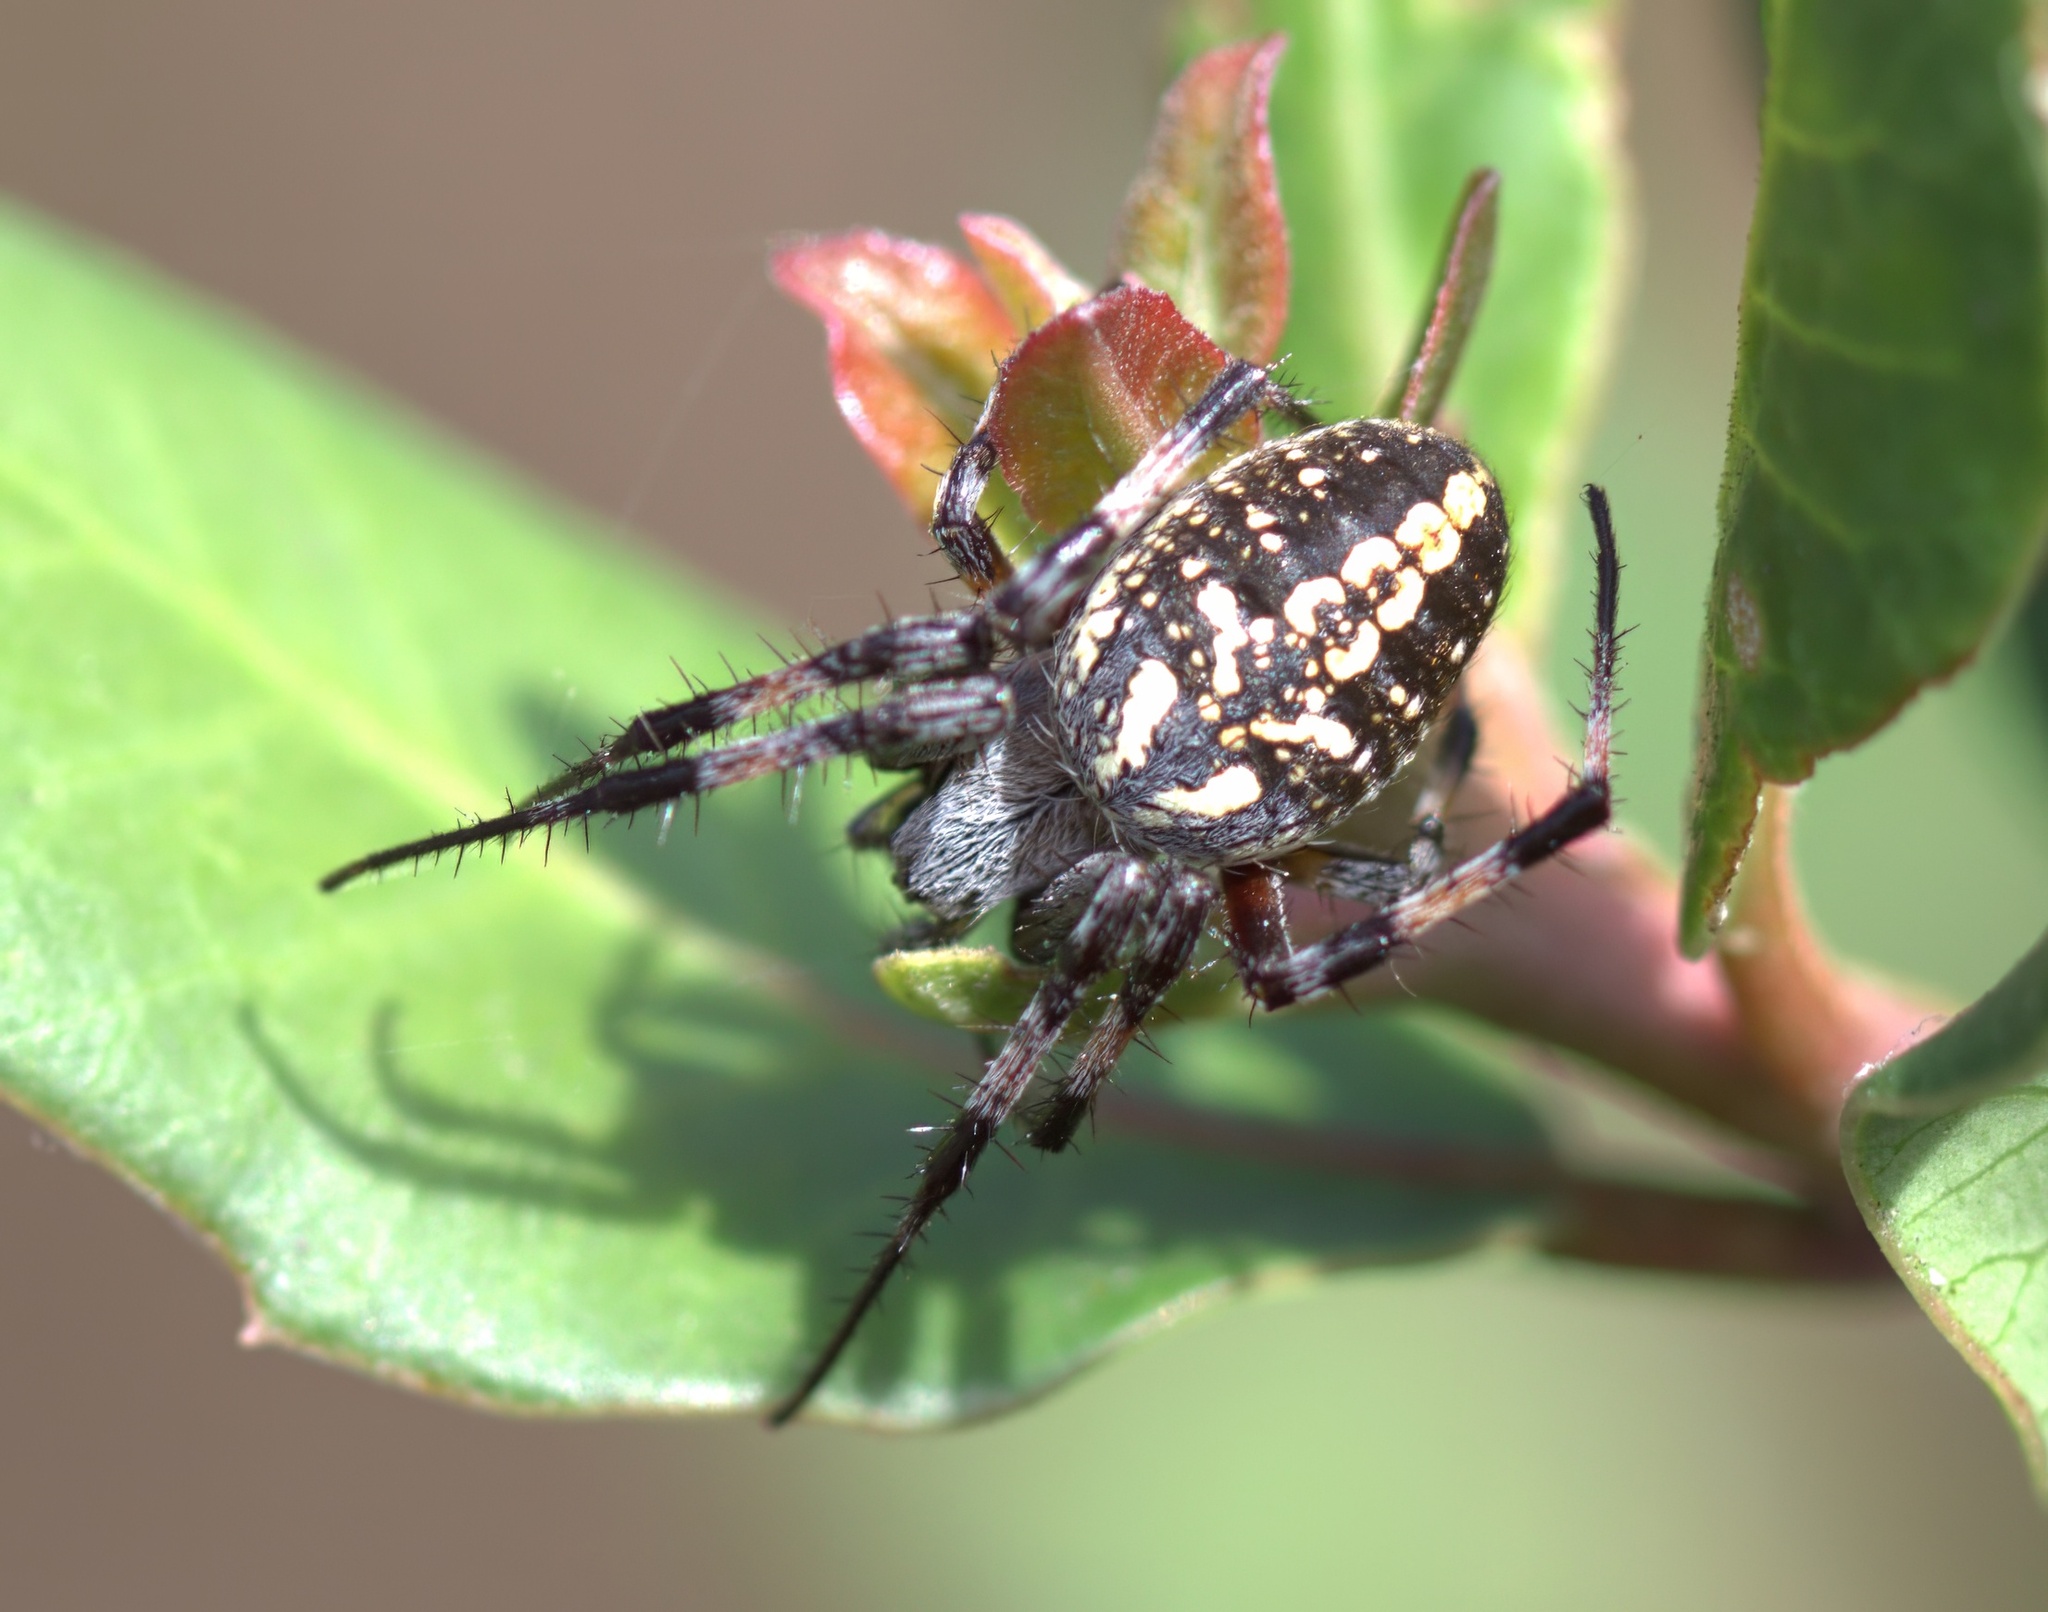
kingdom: Animalia
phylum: Arthropoda
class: Arachnida
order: Araneae
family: Araneidae
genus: Neoscona
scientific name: Neoscona oaxacensis
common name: Orb weavers
